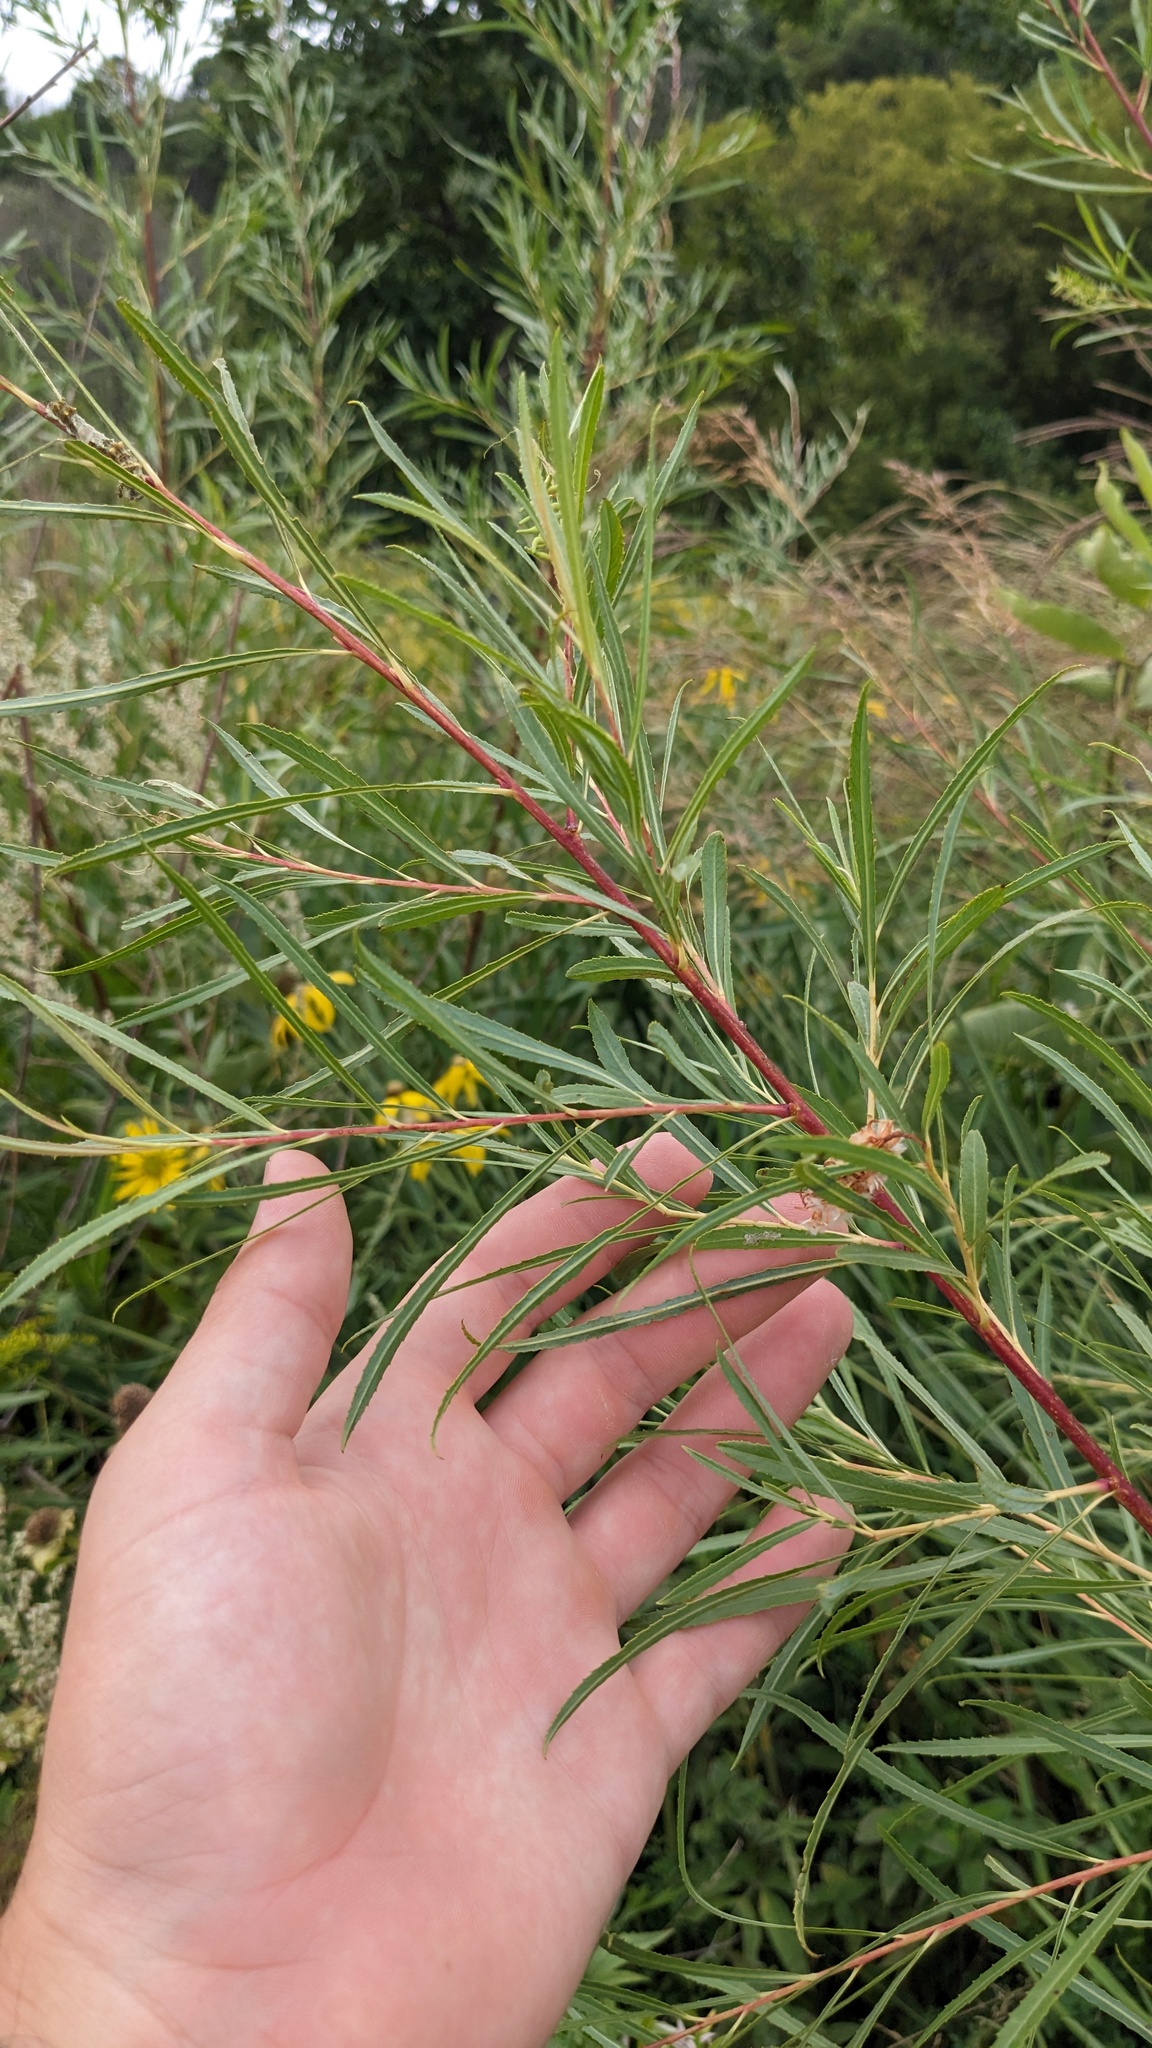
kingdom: Plantae
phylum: Tracheophyta
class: Magnoliopsida
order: Malpighiales
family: Salicaceae
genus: Salix
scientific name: Salix interior
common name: Sandbar willow
